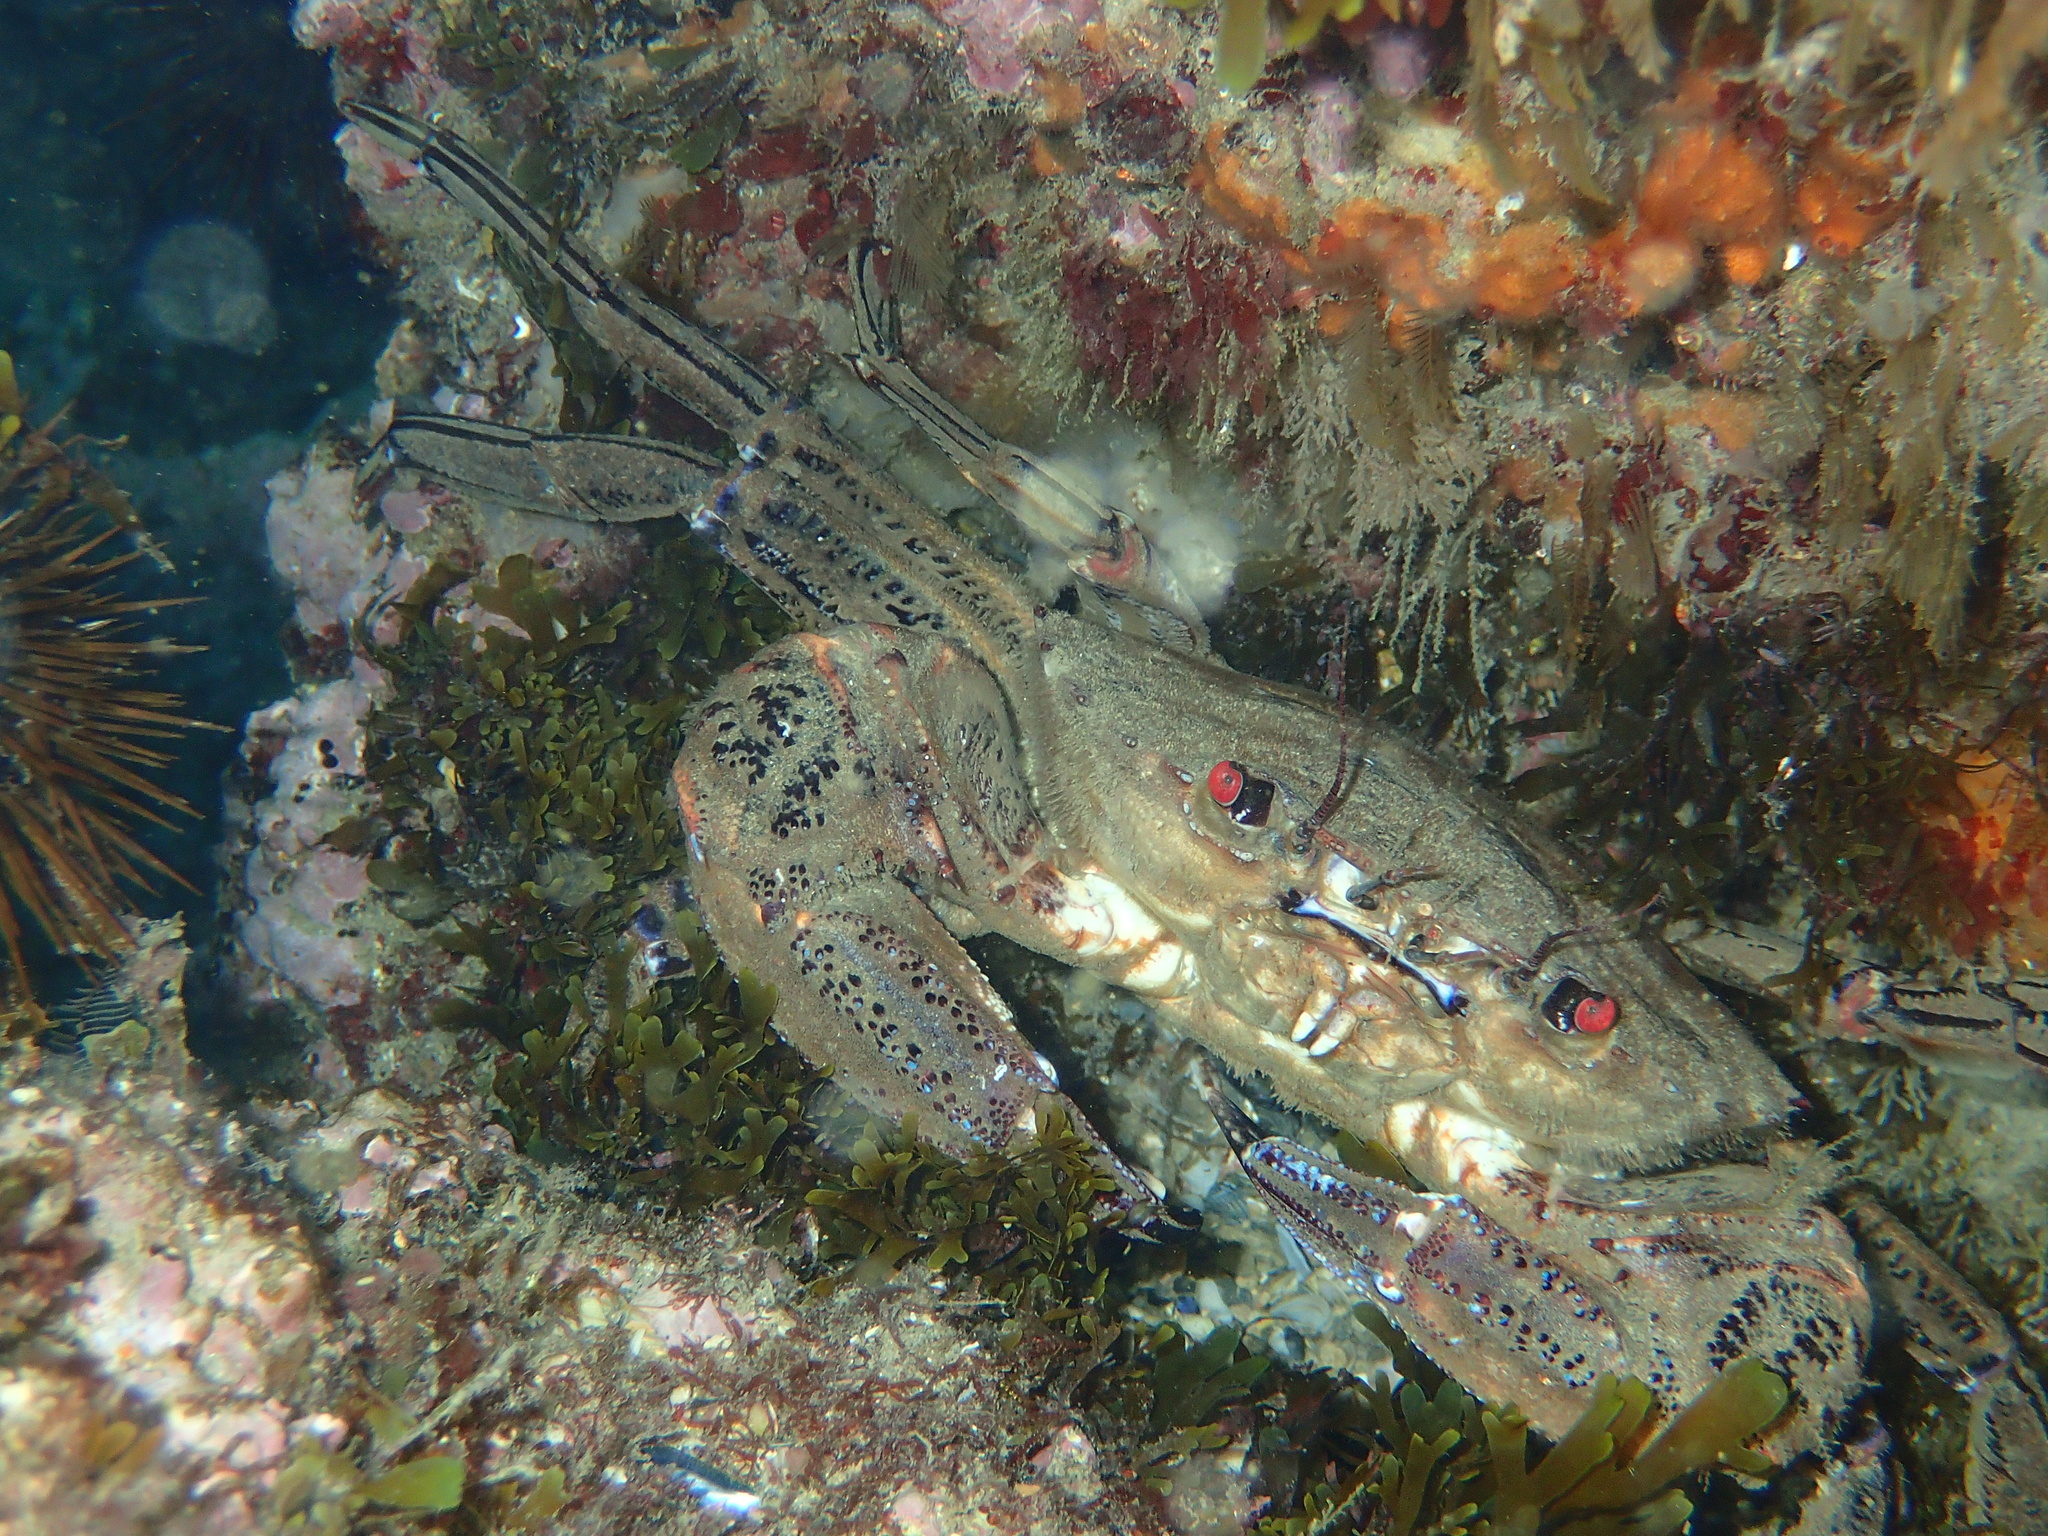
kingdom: Animalia
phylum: Arthropoda
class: Malacostraca
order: Decapoda
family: Polybiidae
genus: Necora
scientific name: Necora puber
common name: Velvet swimming crab
